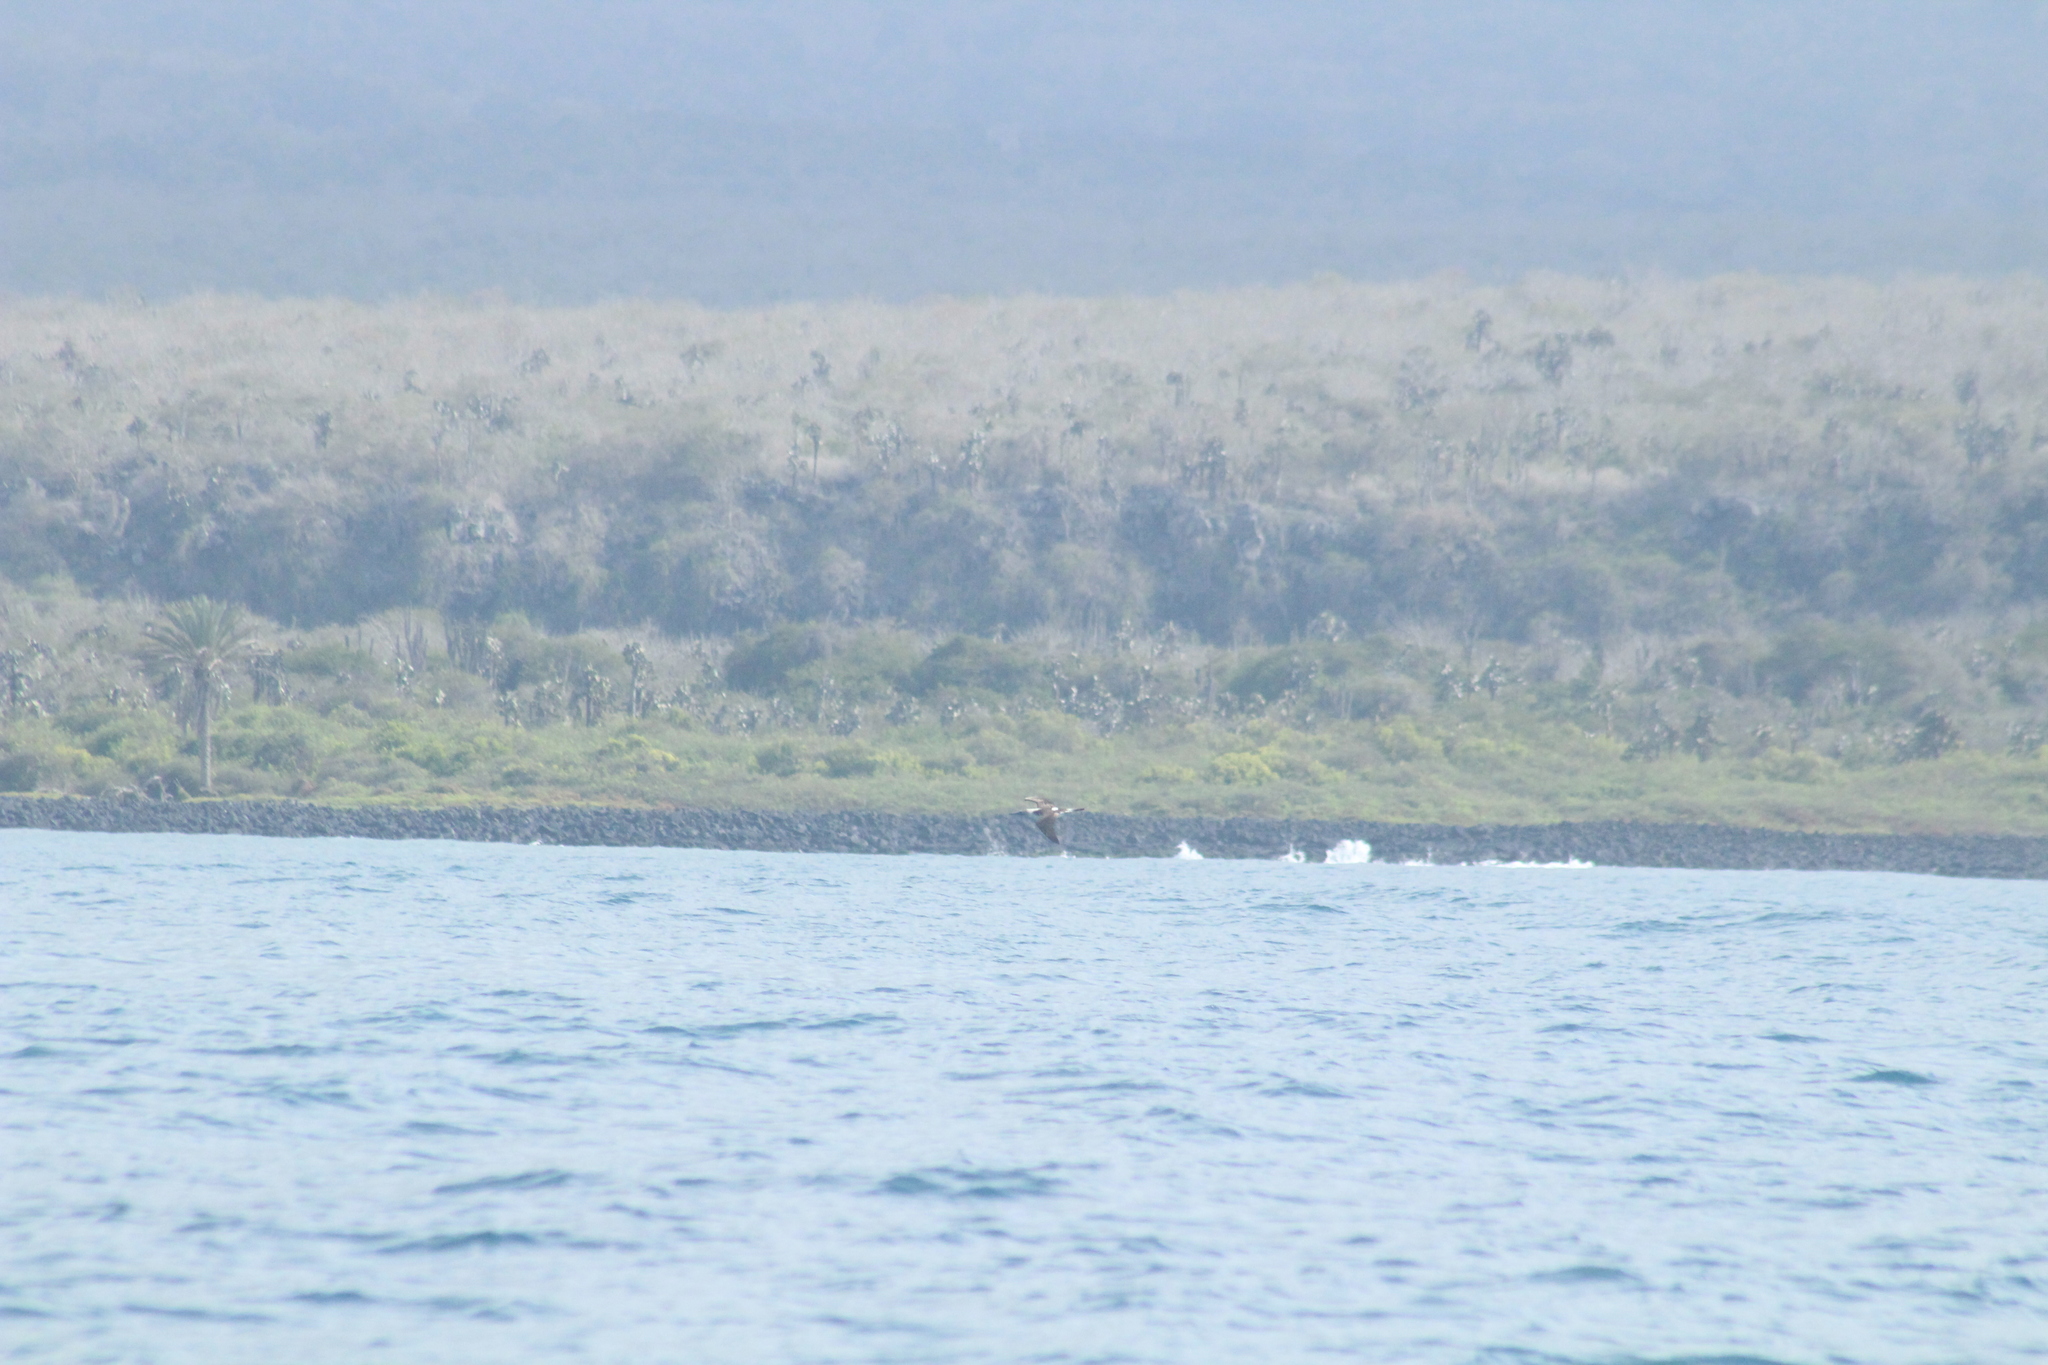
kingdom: Animalia
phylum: Chordata
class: Aves
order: Suliformes
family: Sulidae
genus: Sula
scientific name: Sula nebouxii
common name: Blue-footed booby
